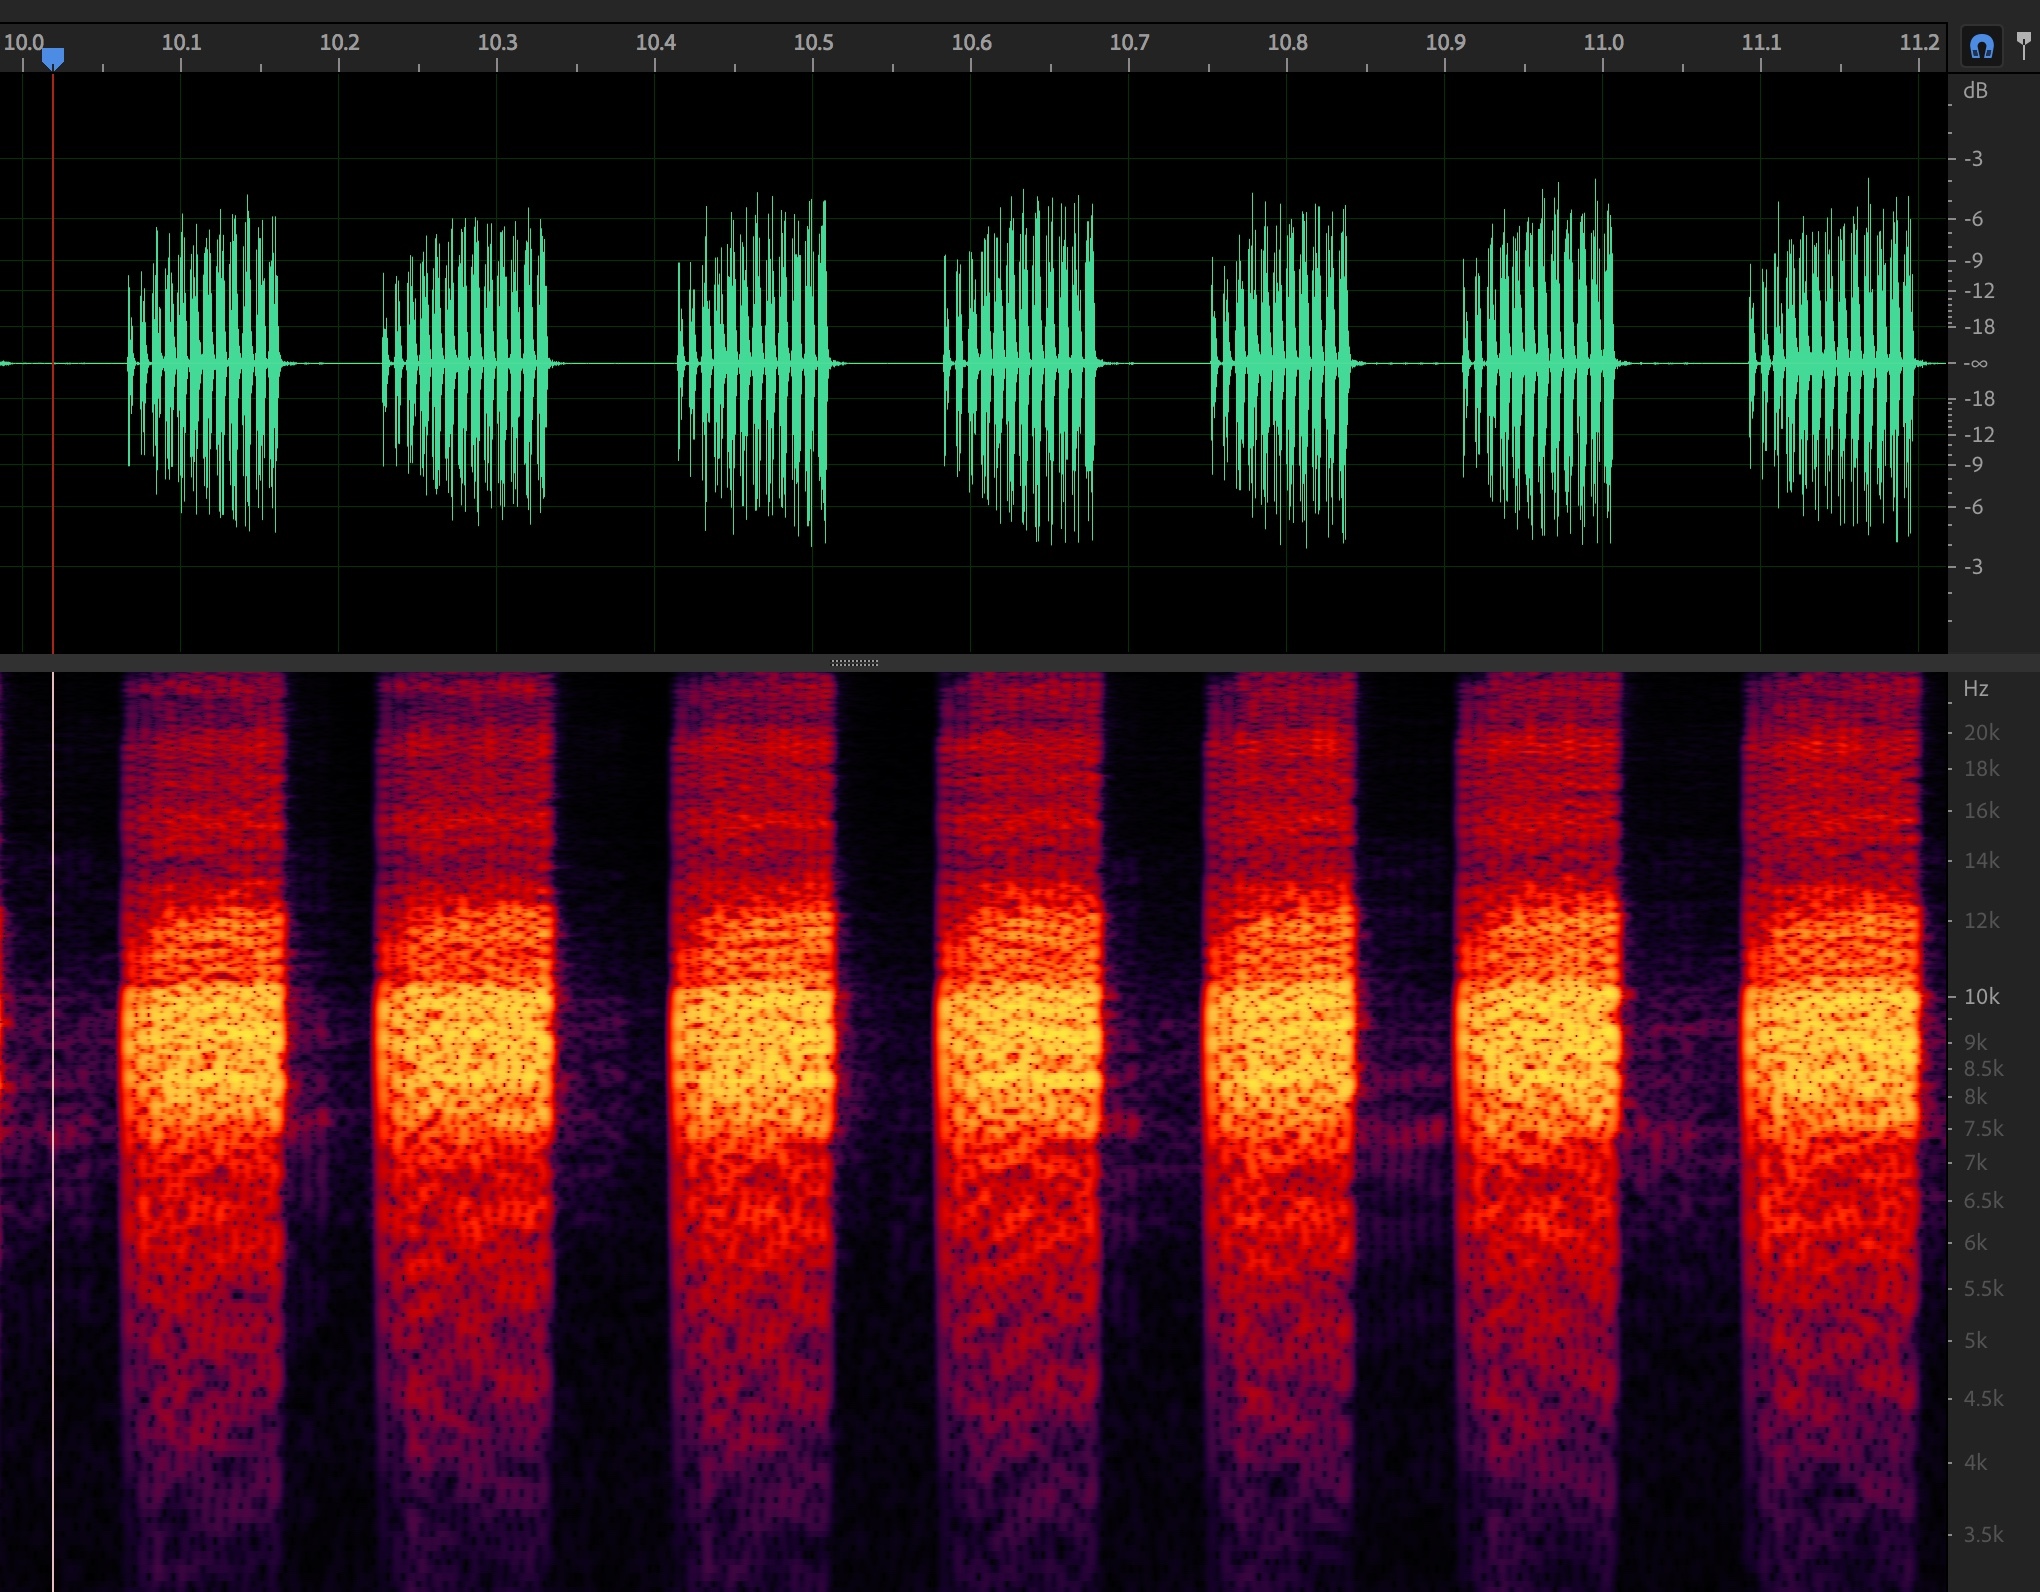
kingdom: Animalia
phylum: Arthropoda
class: Insecta
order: Hemiptera
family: Cicadidae
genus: Diceroprocta
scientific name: Diceroprocta texana
